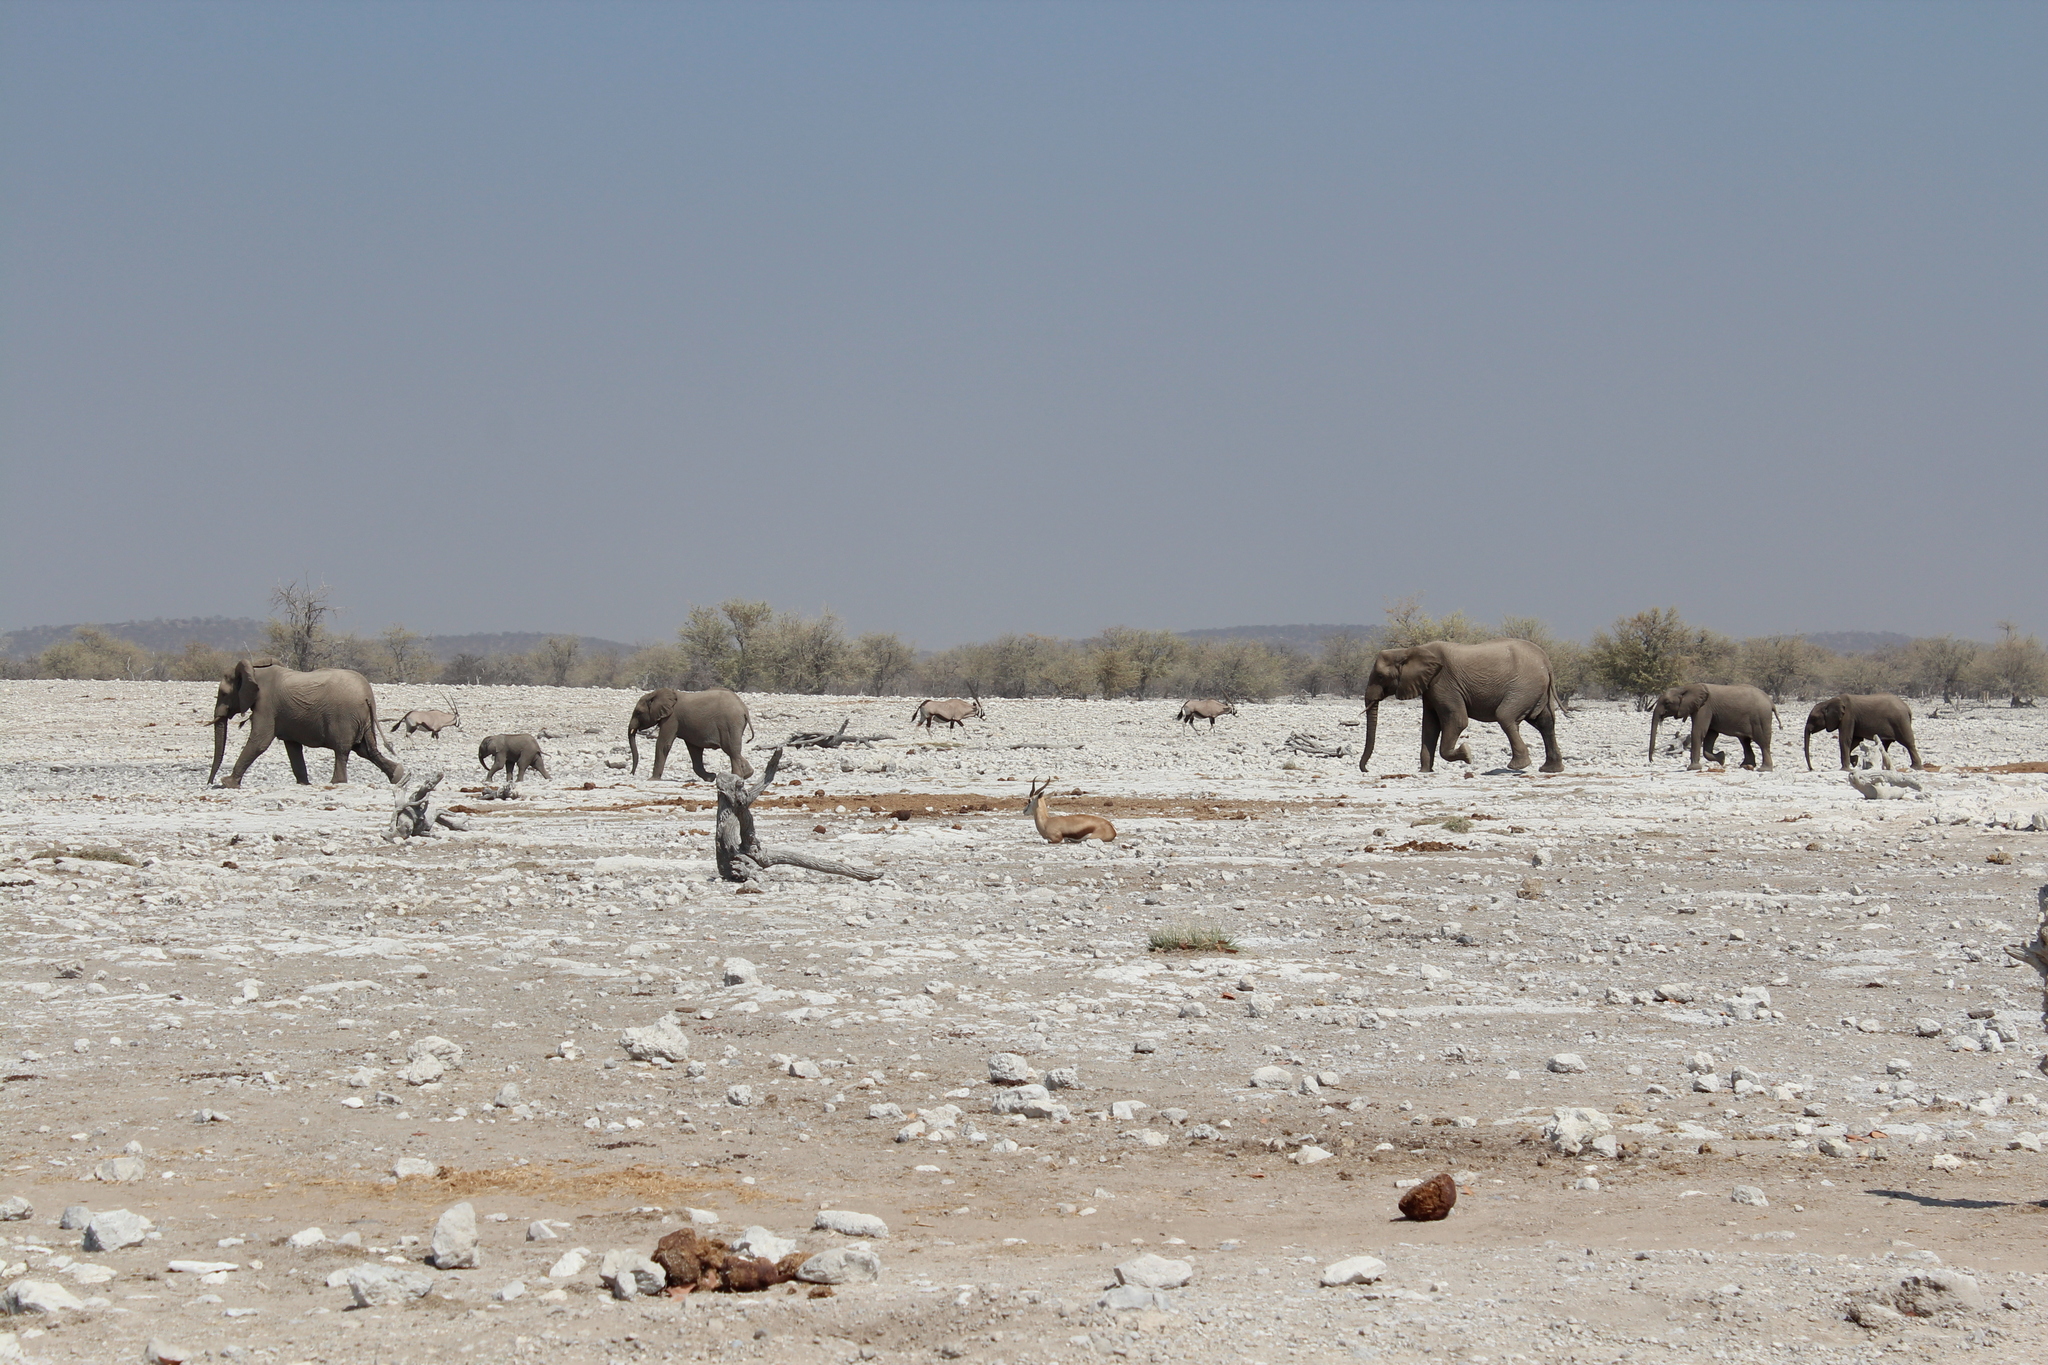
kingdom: Animalia
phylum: Chordata
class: Mammalia
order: Proboscidea
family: Elephantidae
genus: Loxodonta
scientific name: Loxodonta africana
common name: African elephant
